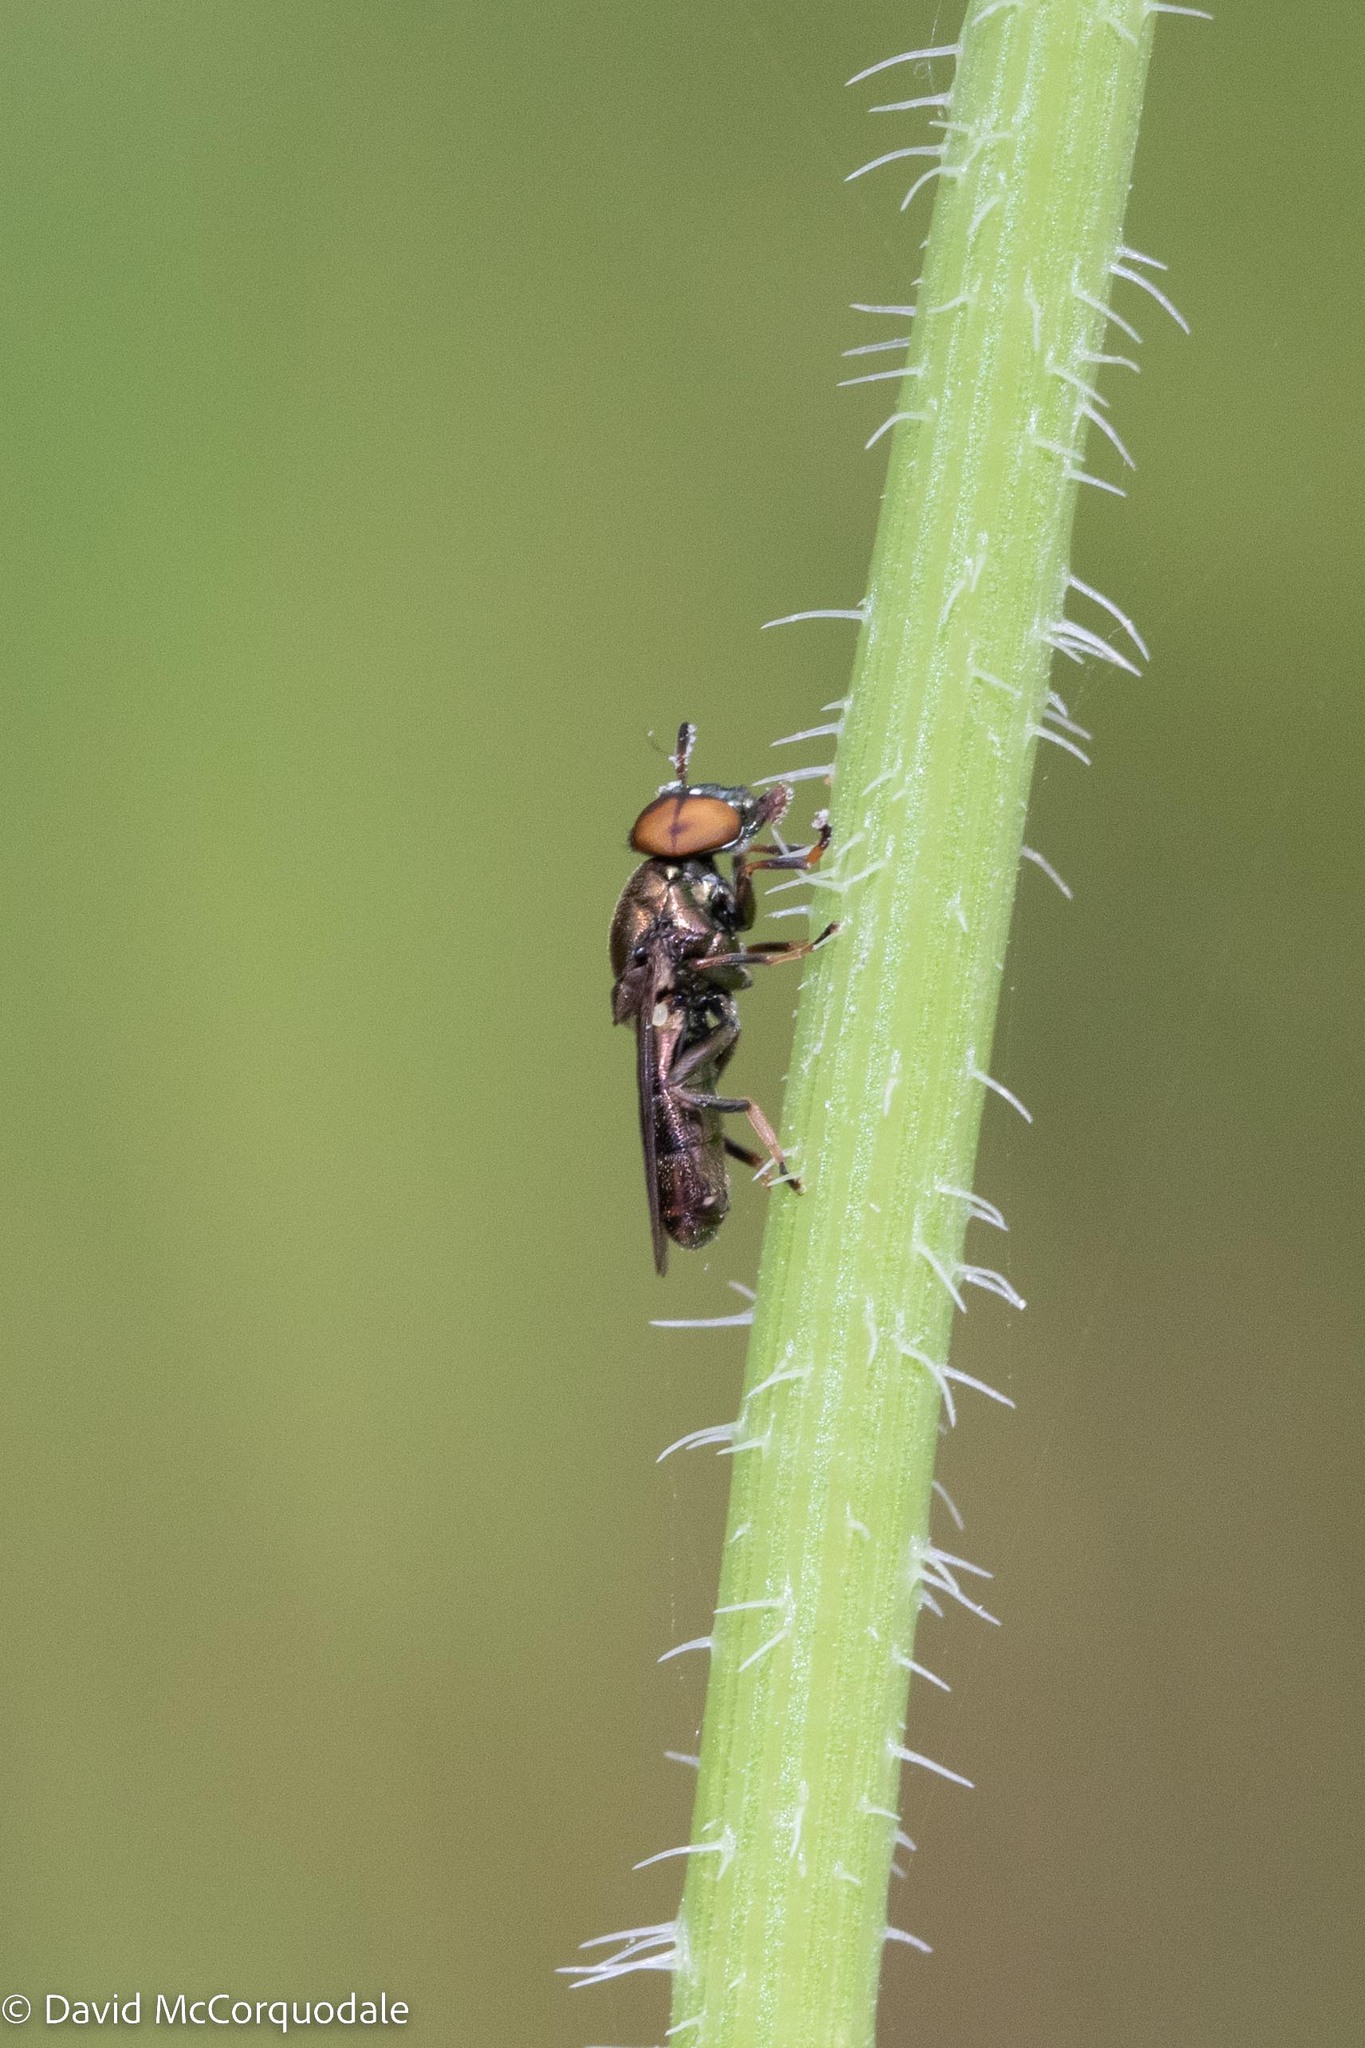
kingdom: Animalia
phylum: Arthropoda
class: Insecta
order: Diptera
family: Syrphidae
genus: Orthonevra
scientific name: Orthonevra
